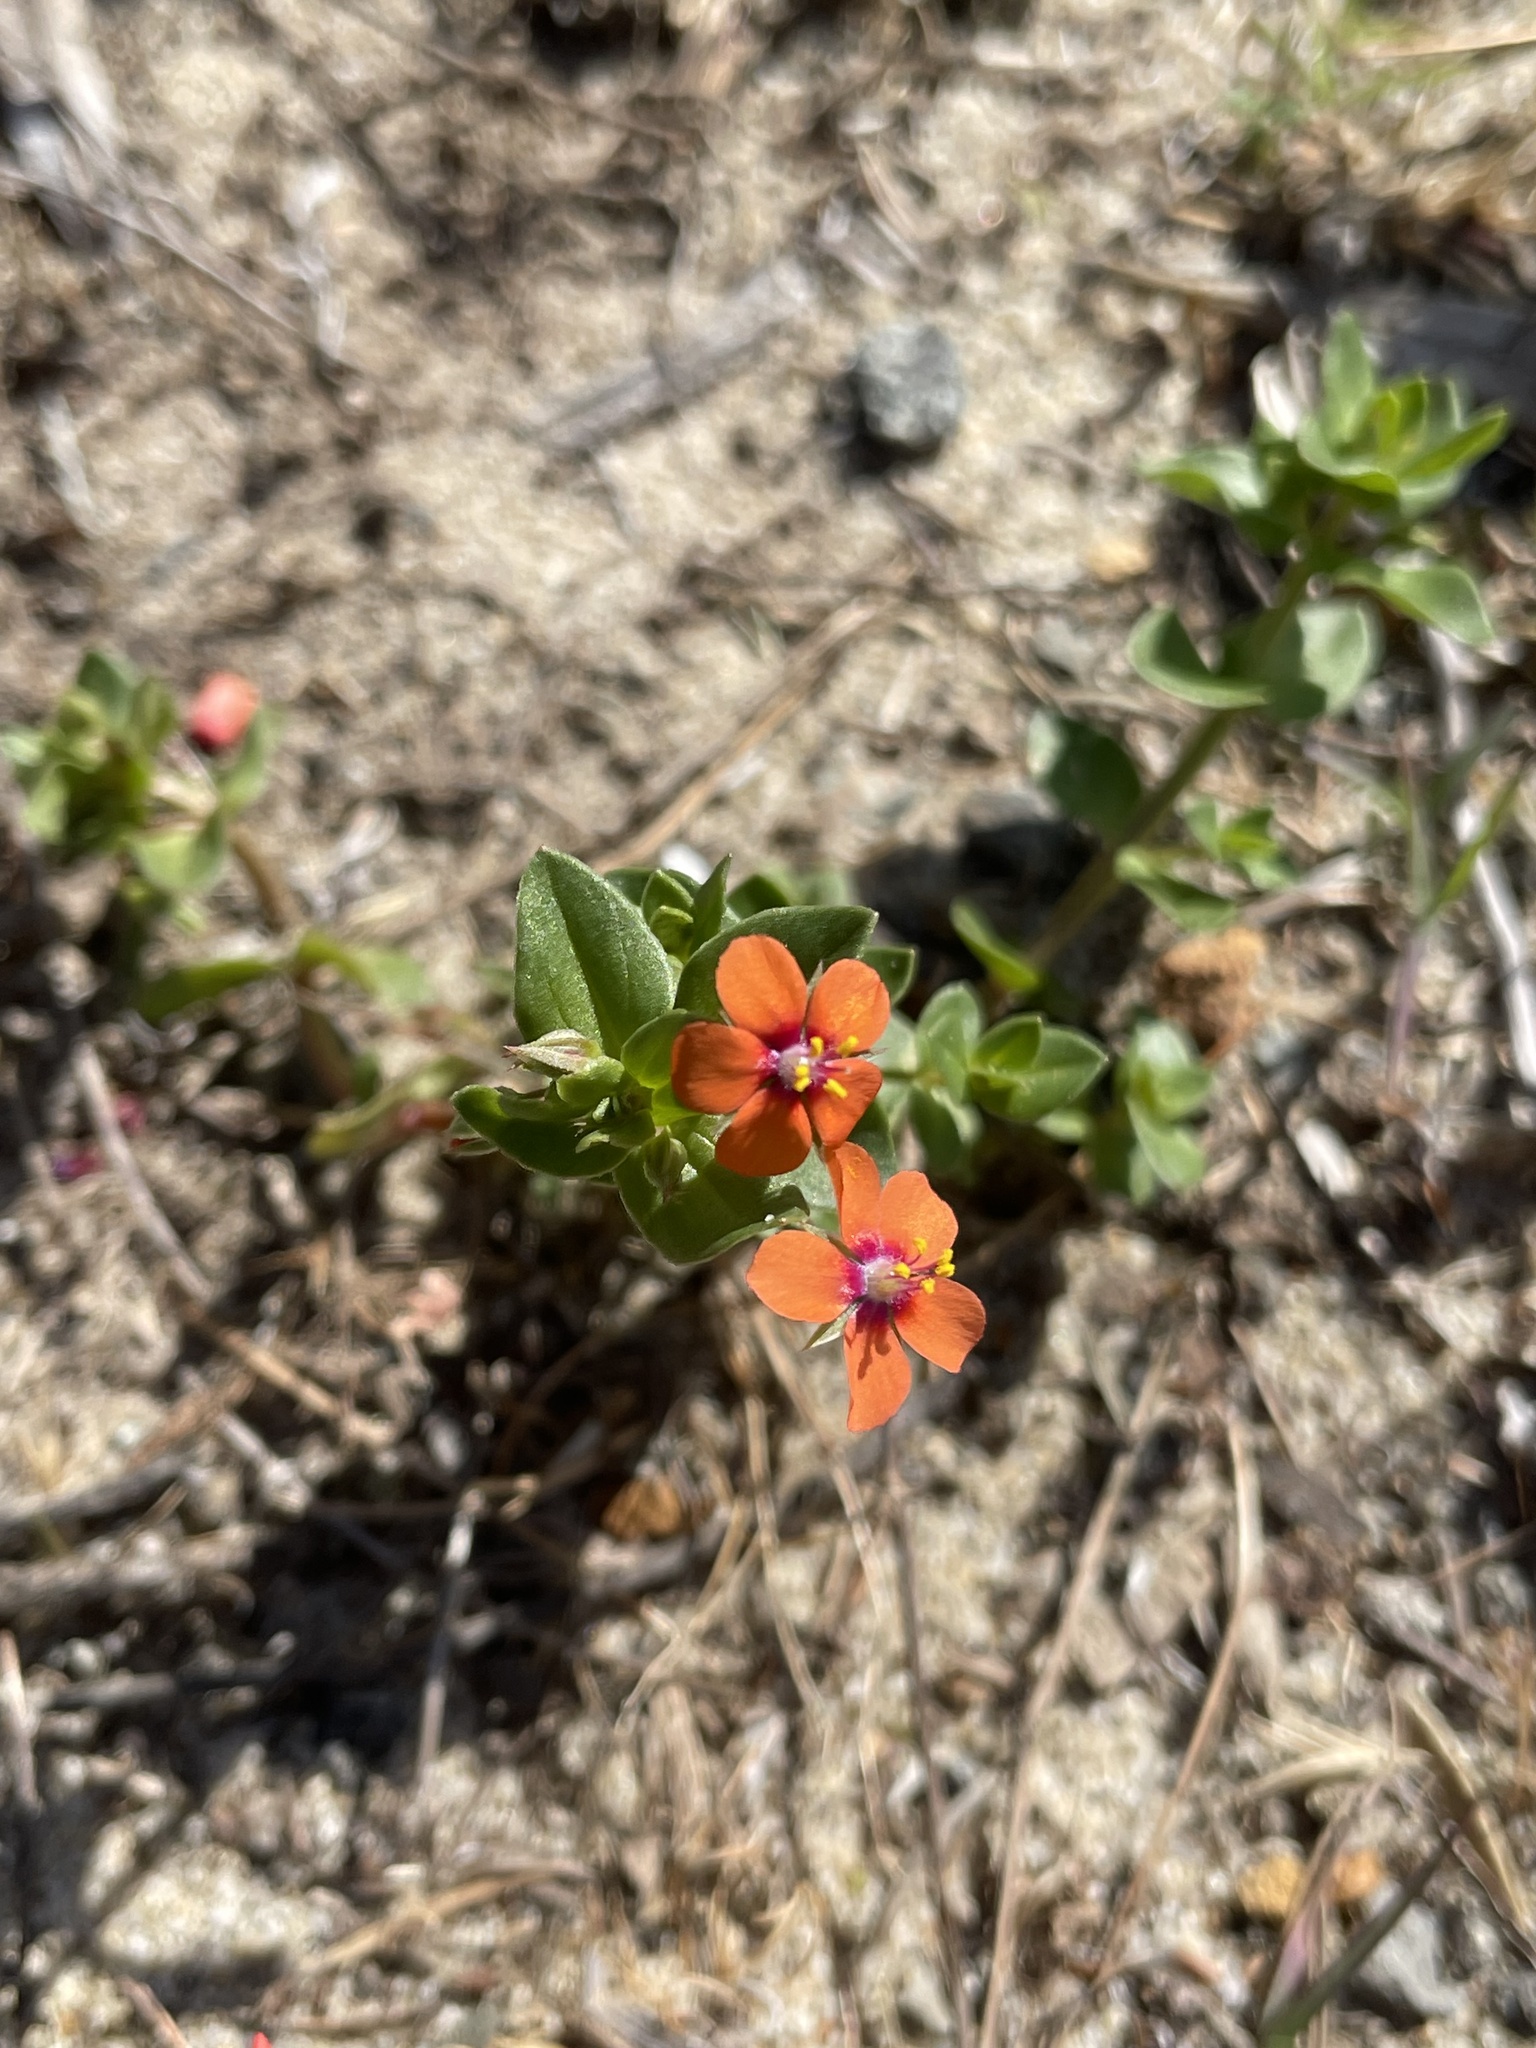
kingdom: Plantae
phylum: Tracheophyta
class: Magnoliopsida
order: Ericales
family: Primulaceae
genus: Lysimachia
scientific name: Lysimachia arvensis
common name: Scarlet pimpernel
